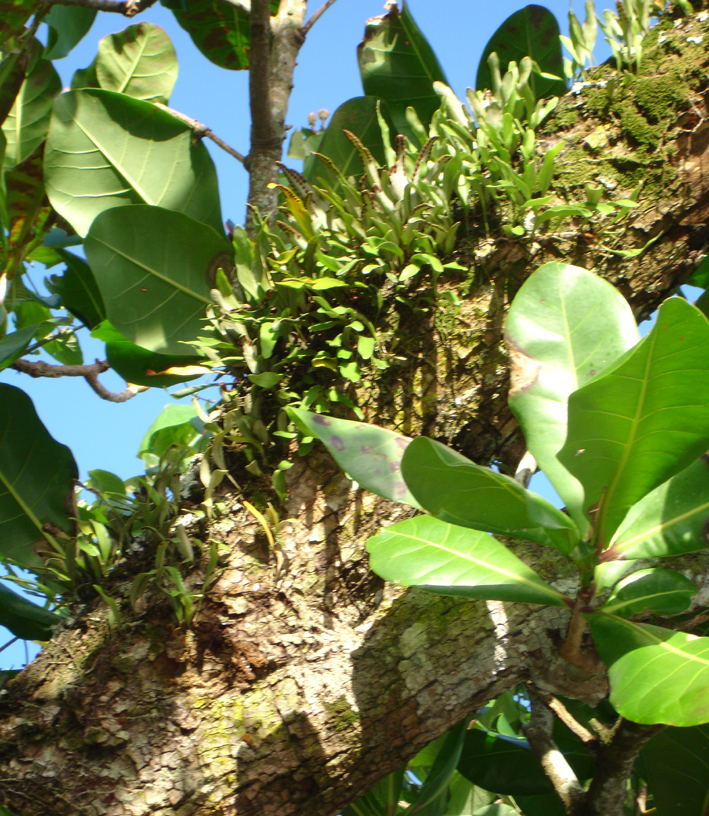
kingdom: Plantae
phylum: Tracheophyta
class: Polypodiopsida
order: Polypodiales
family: Polypodiaceae
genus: Pyrrosia
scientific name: Pyrrosia serpens
